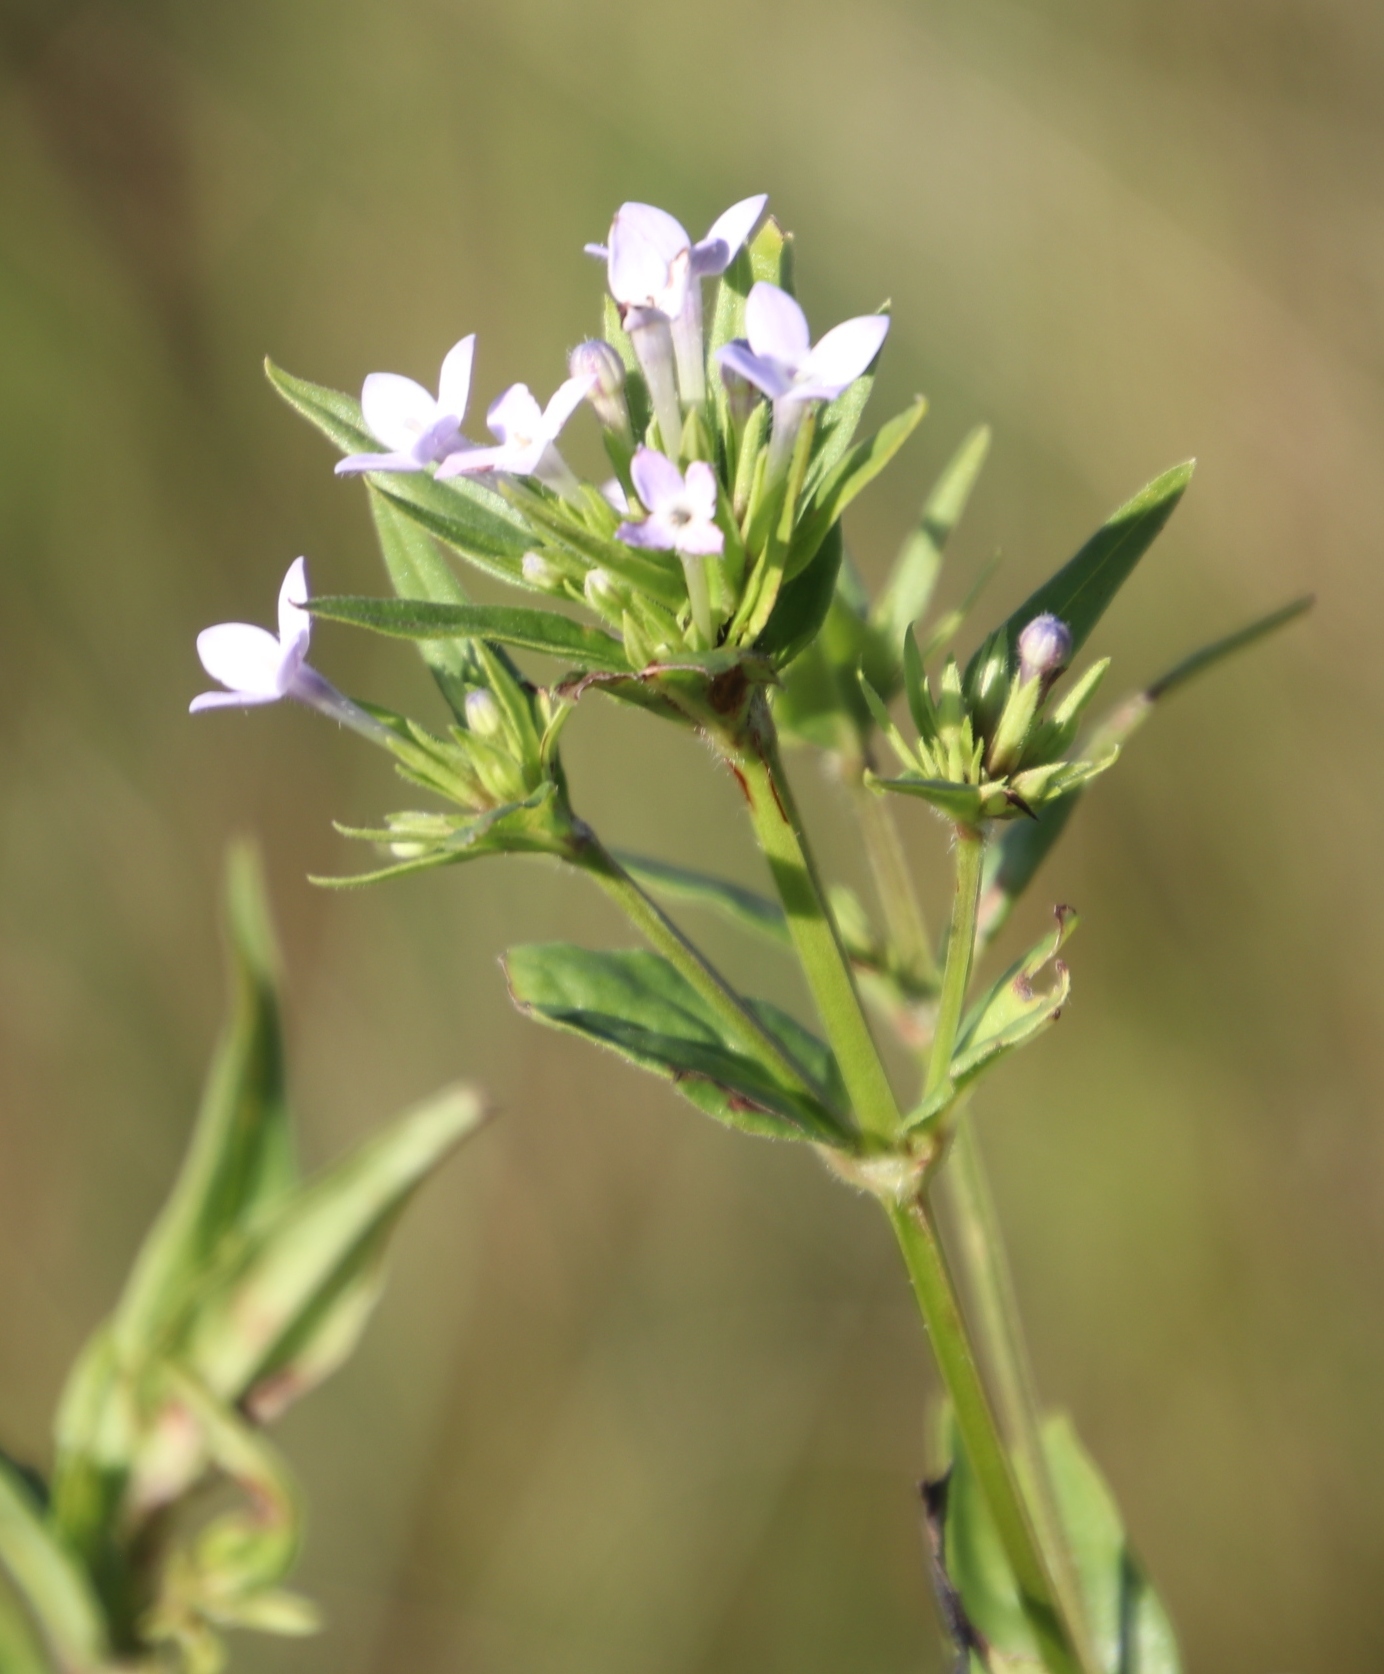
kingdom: Plantae
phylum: Tracheophyta
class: Magnoliopsida
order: Gentianales
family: Rubiaceae
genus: Conostomium
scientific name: Conostomium natalense
